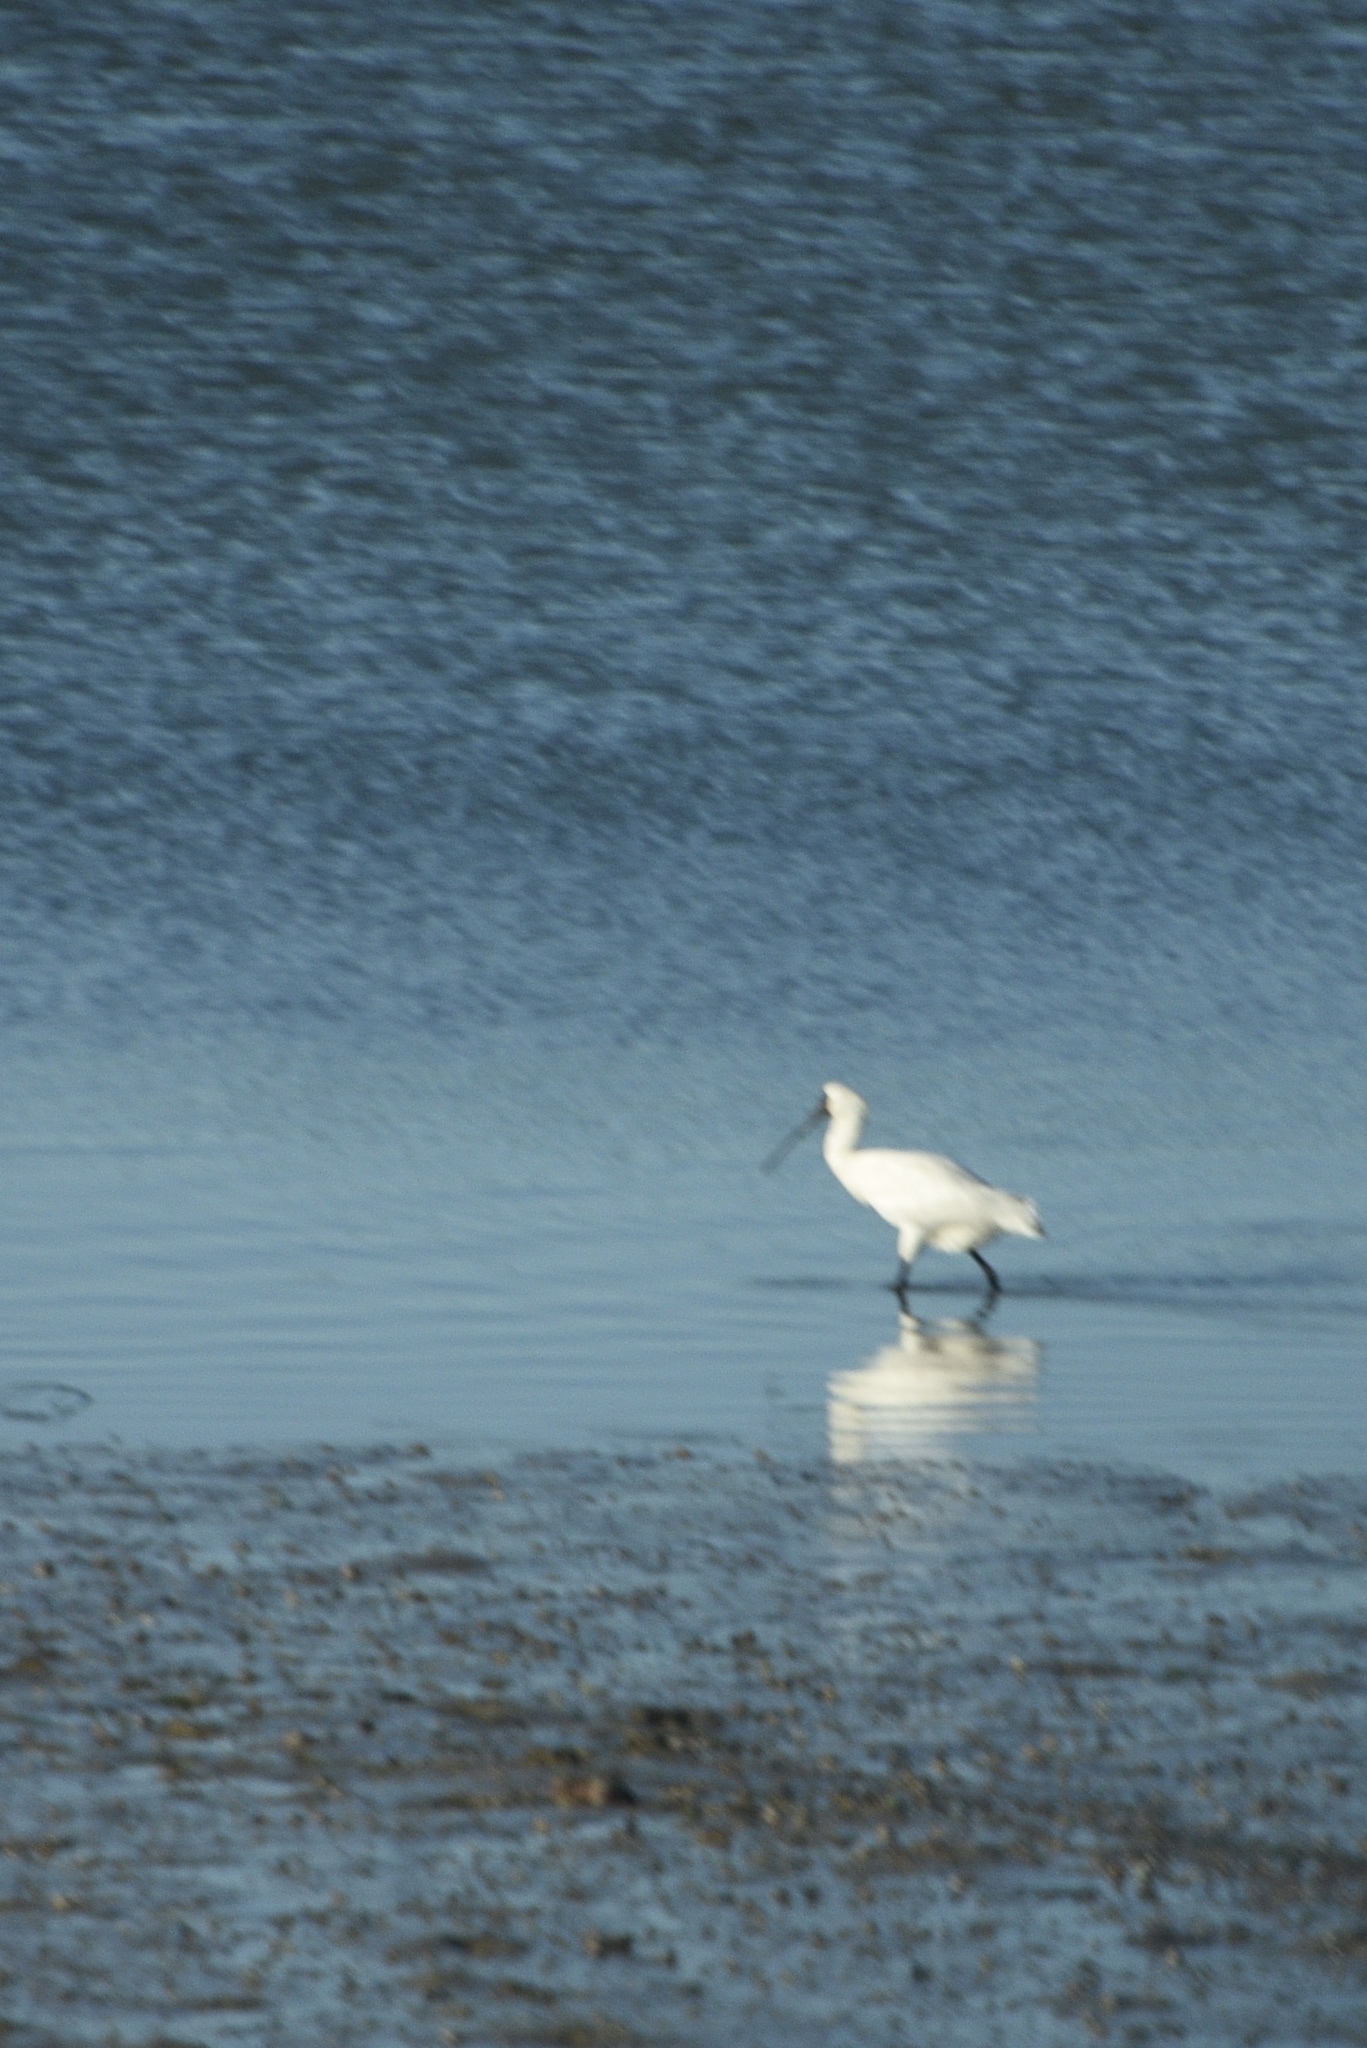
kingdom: Animalia
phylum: Chordata
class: Aves
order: Pelecaniformes
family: Threskiornithidae
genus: Platalea
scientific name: Platalea regia
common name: Royal spoonbill
